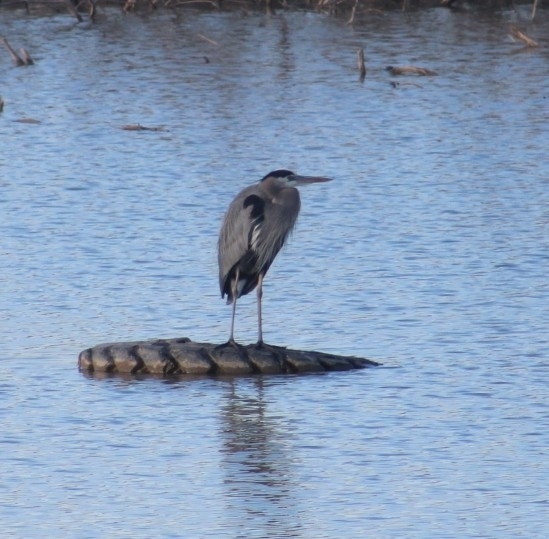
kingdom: Animalia
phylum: Chordata
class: Aves
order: Pelecaniformes
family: Ardeidae
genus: Ardea
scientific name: Ardea herodias
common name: Great blue heron
